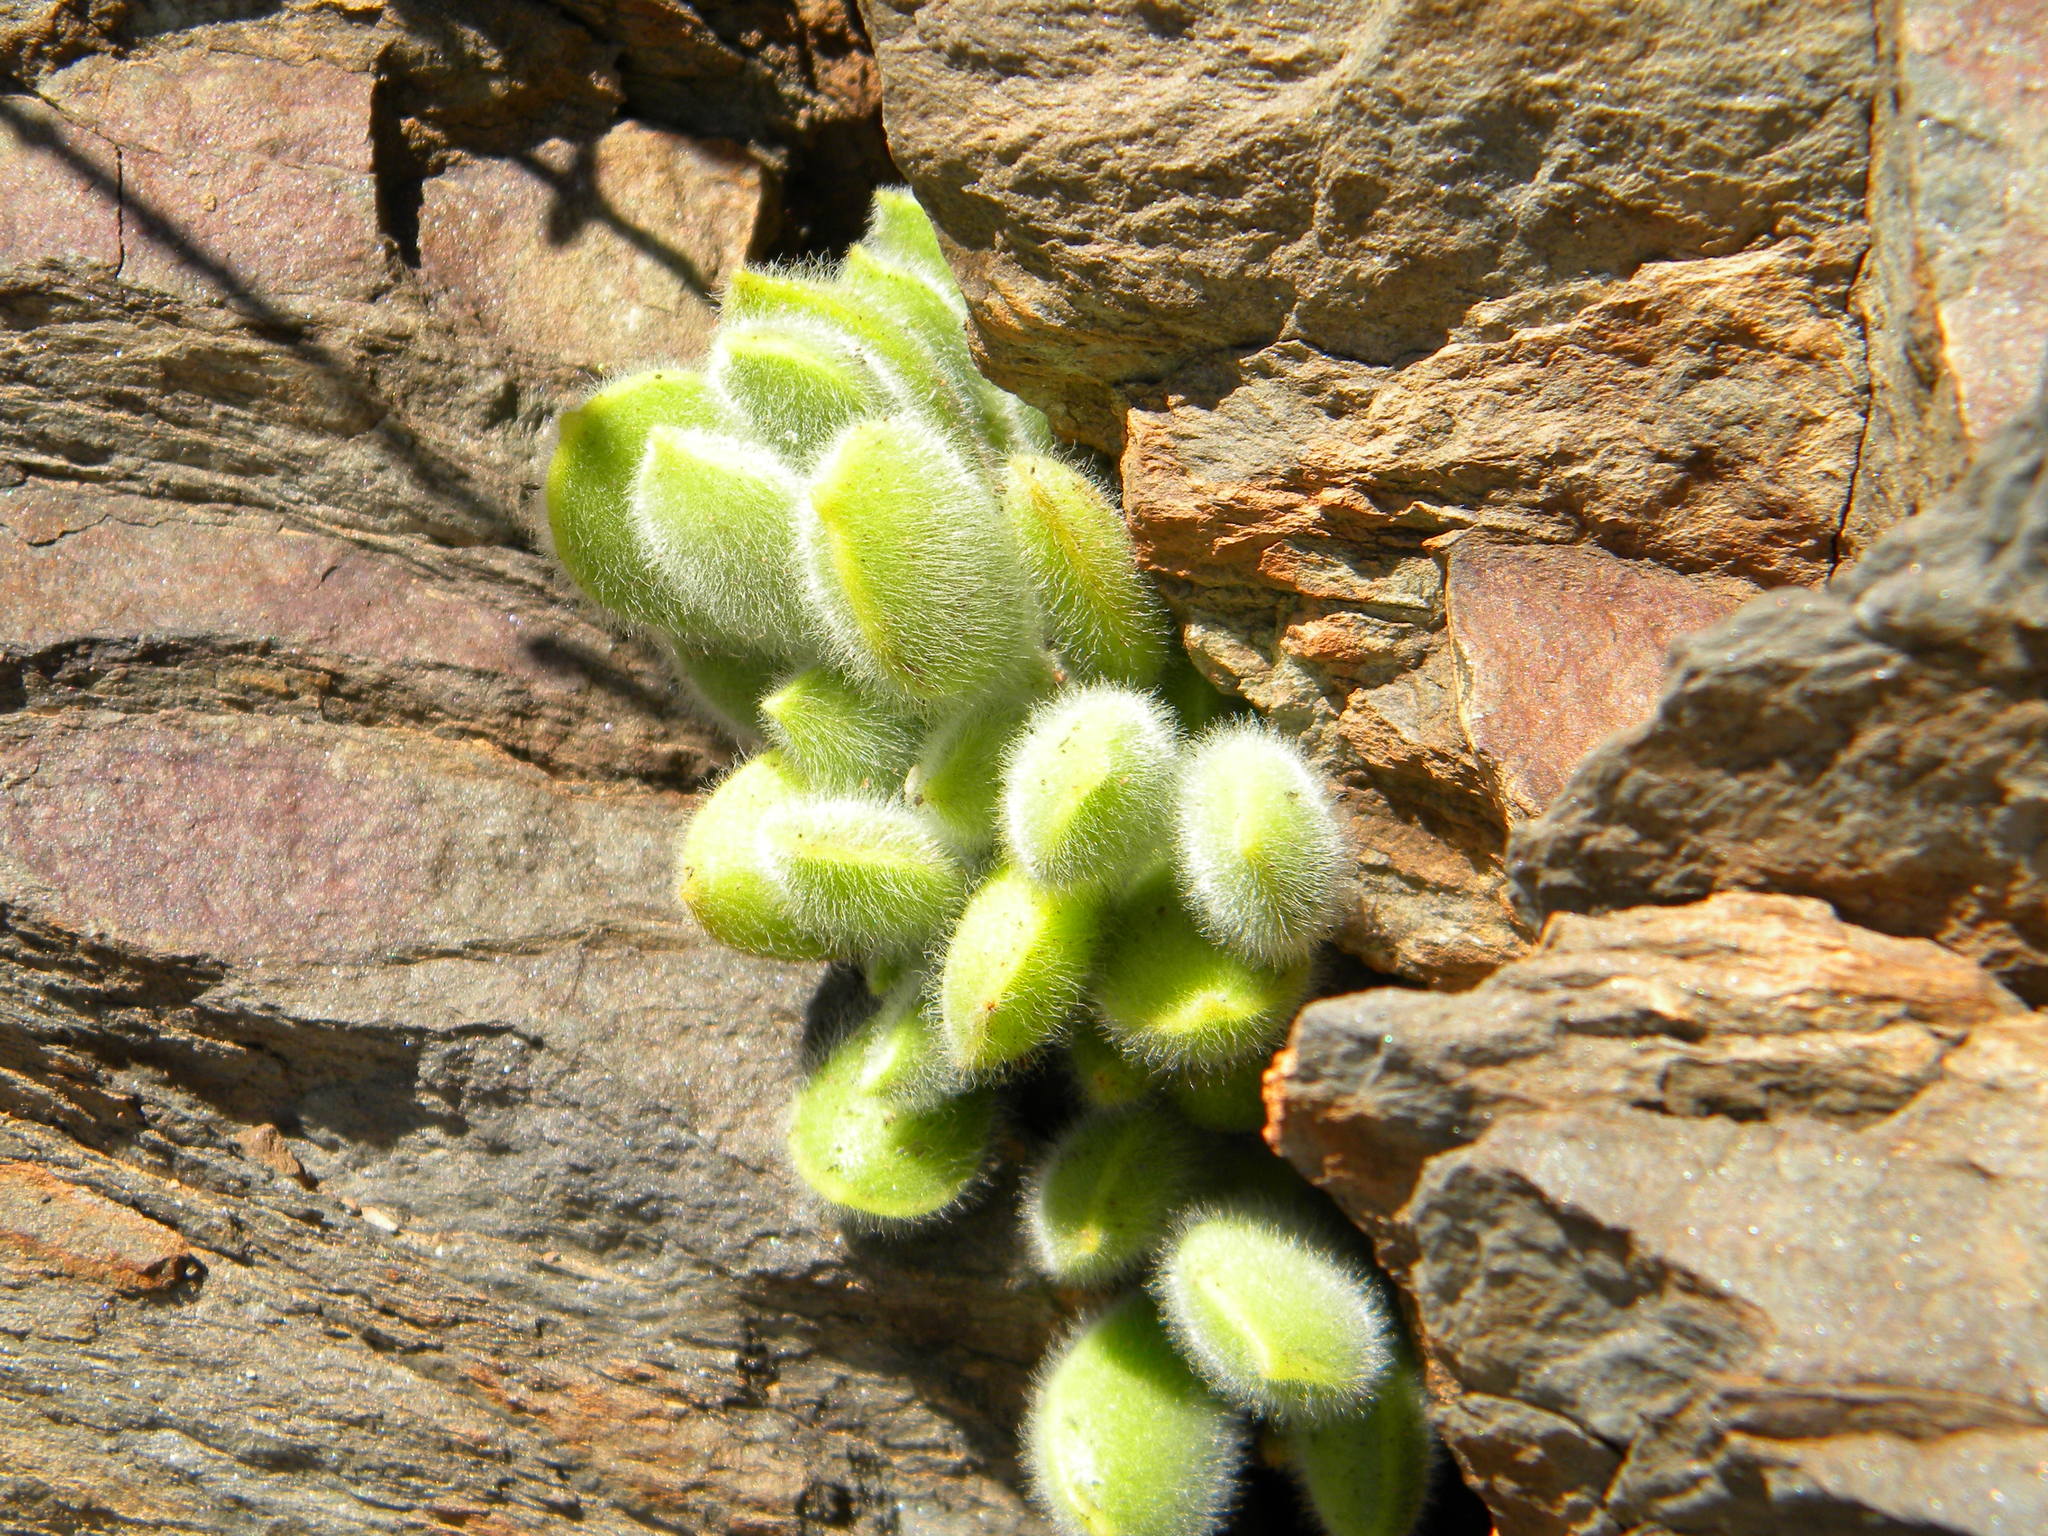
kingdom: Plantae
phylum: Tracheophyta
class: Magnoliopsida
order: Saxifragales
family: Crassulaceae
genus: Cotyledon
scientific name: Cotyledon tomentosa
